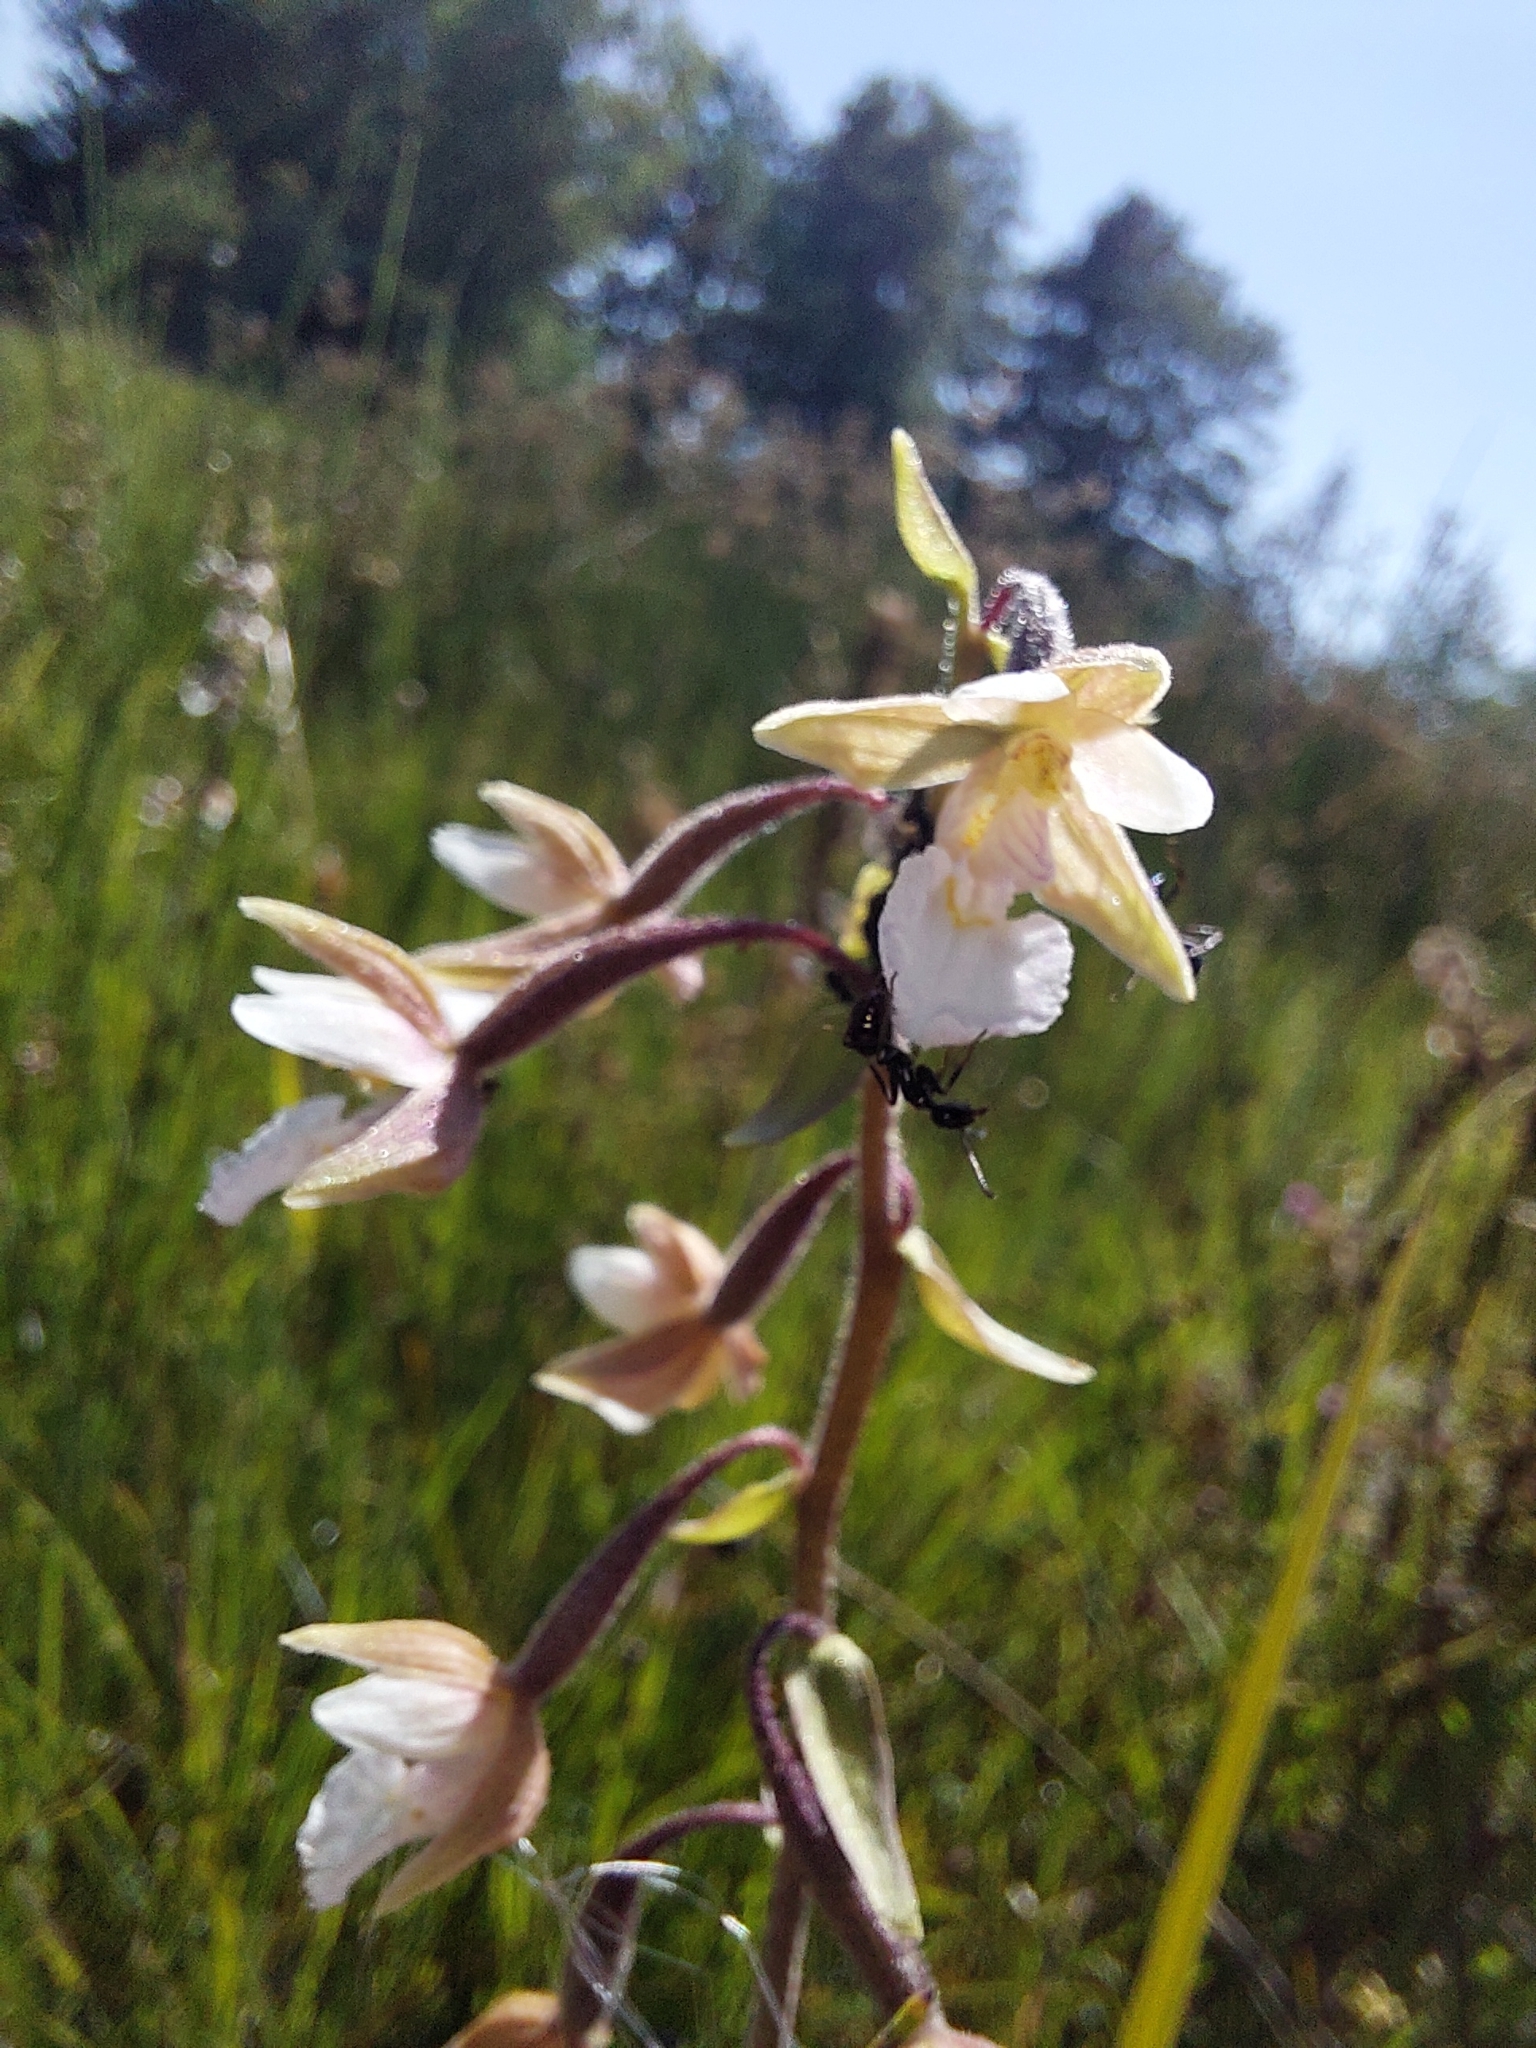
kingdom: Plantae
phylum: Tracheophyta
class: Liliopsida
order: Asparagales
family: Orchidaceae
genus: Epipactis
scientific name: Epipactis palustris
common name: Marsh helleborine
